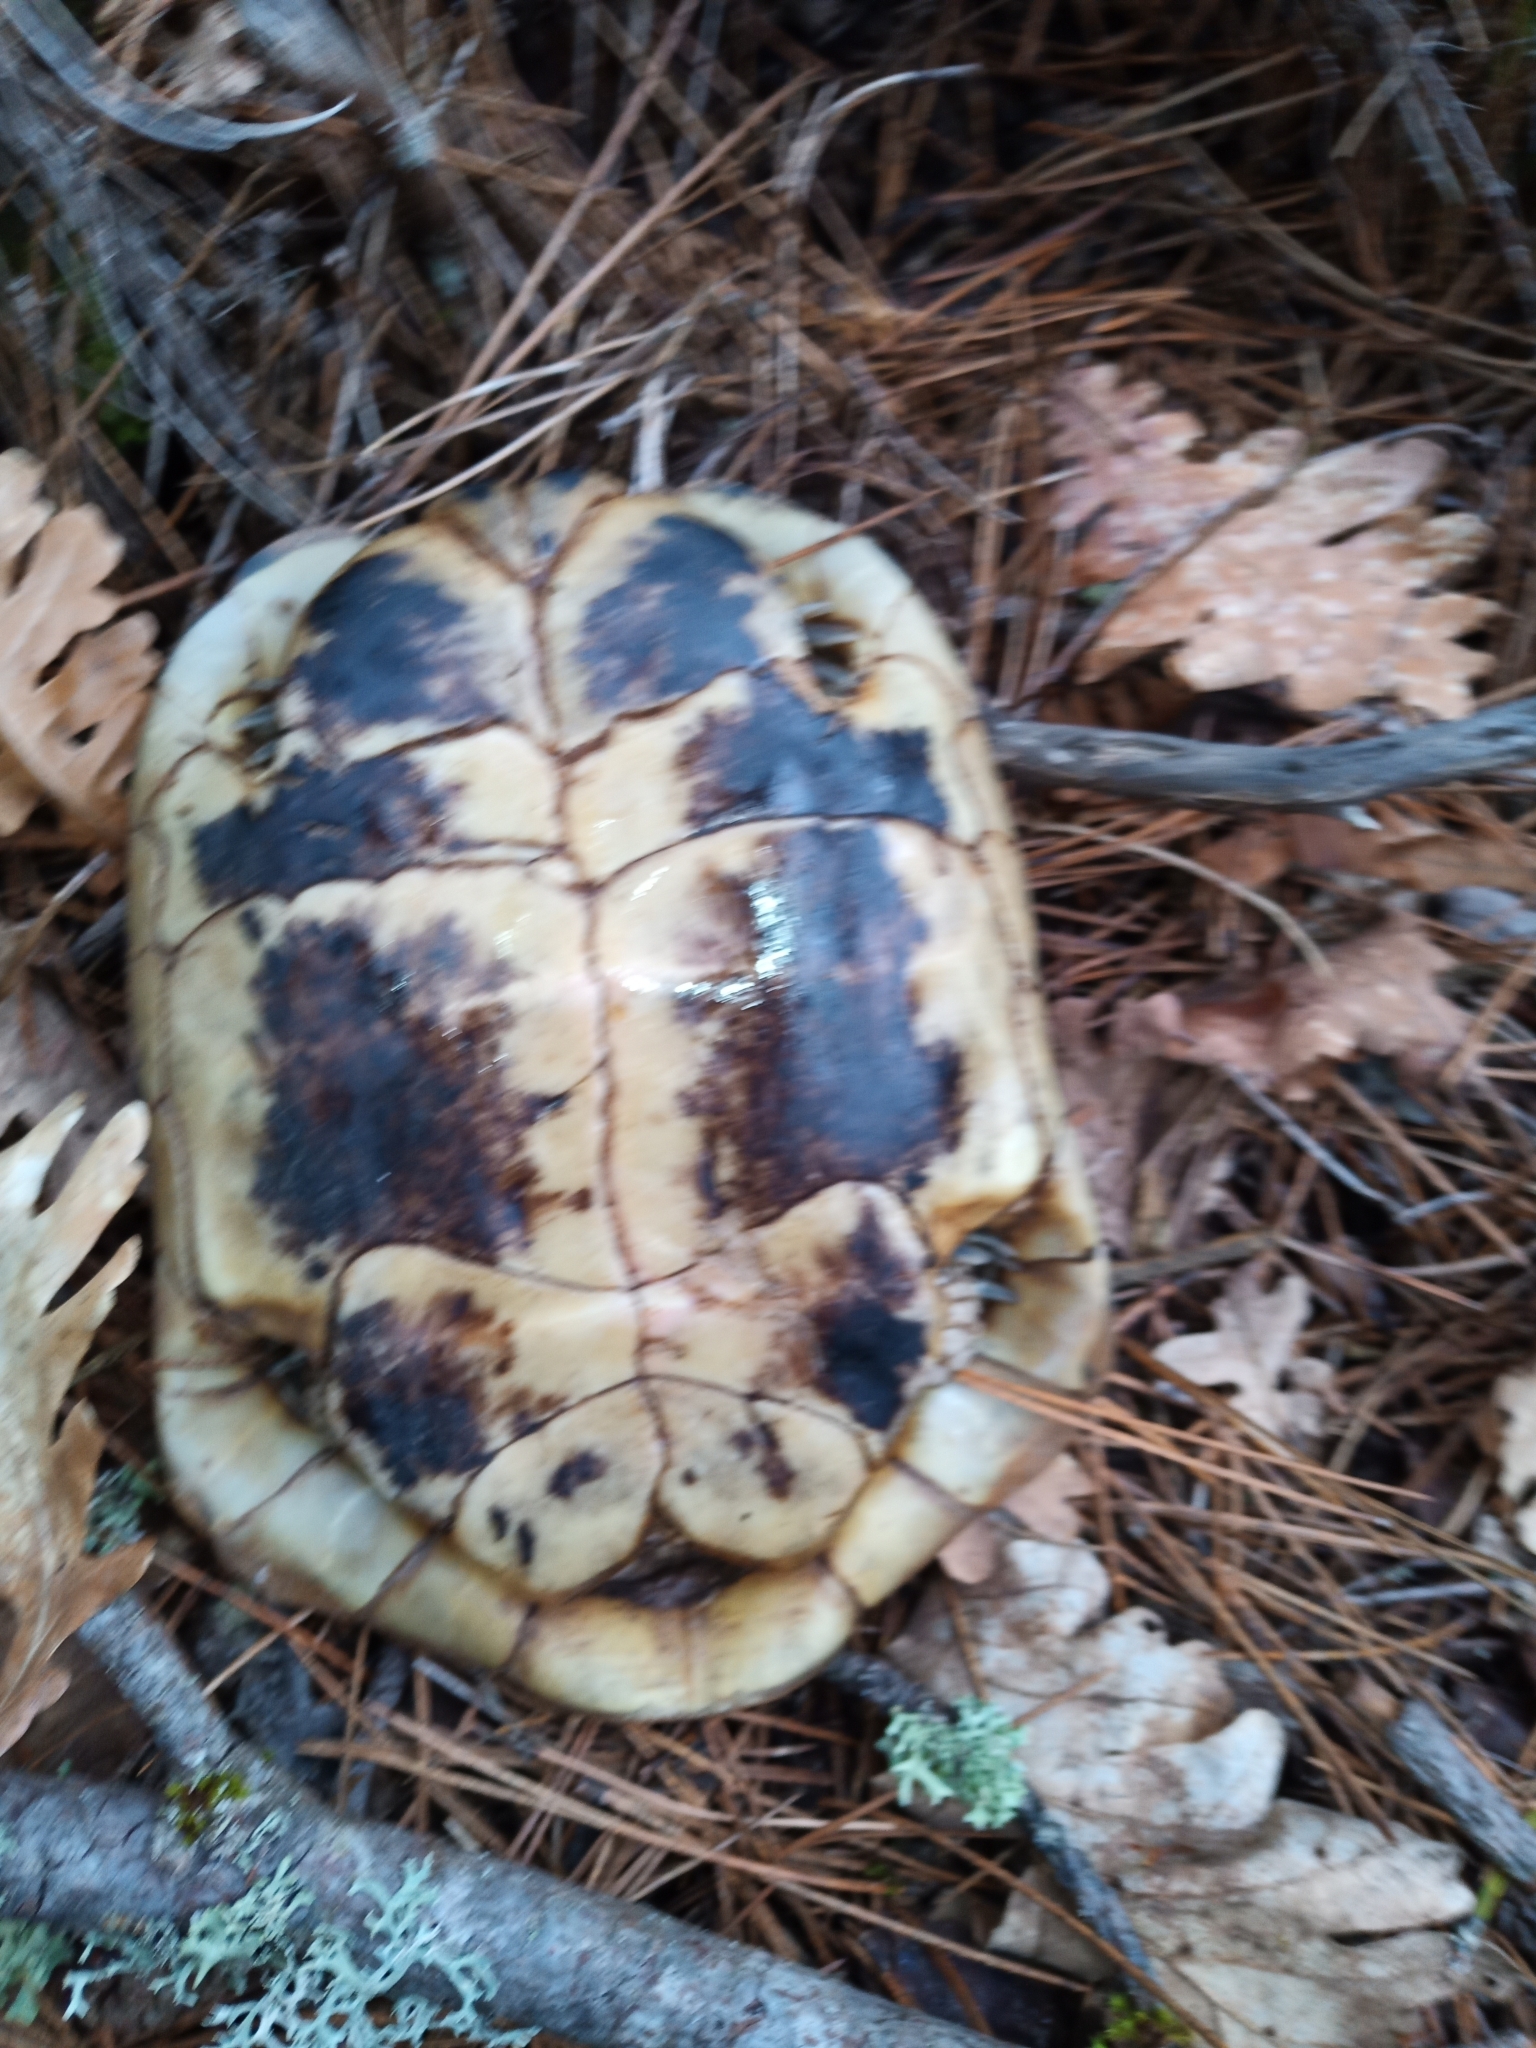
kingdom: Animalia
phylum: Chordata
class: Testudines
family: Testudinidae
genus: Testudo
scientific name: Testudo hermanni
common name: Hermann's tortoise
